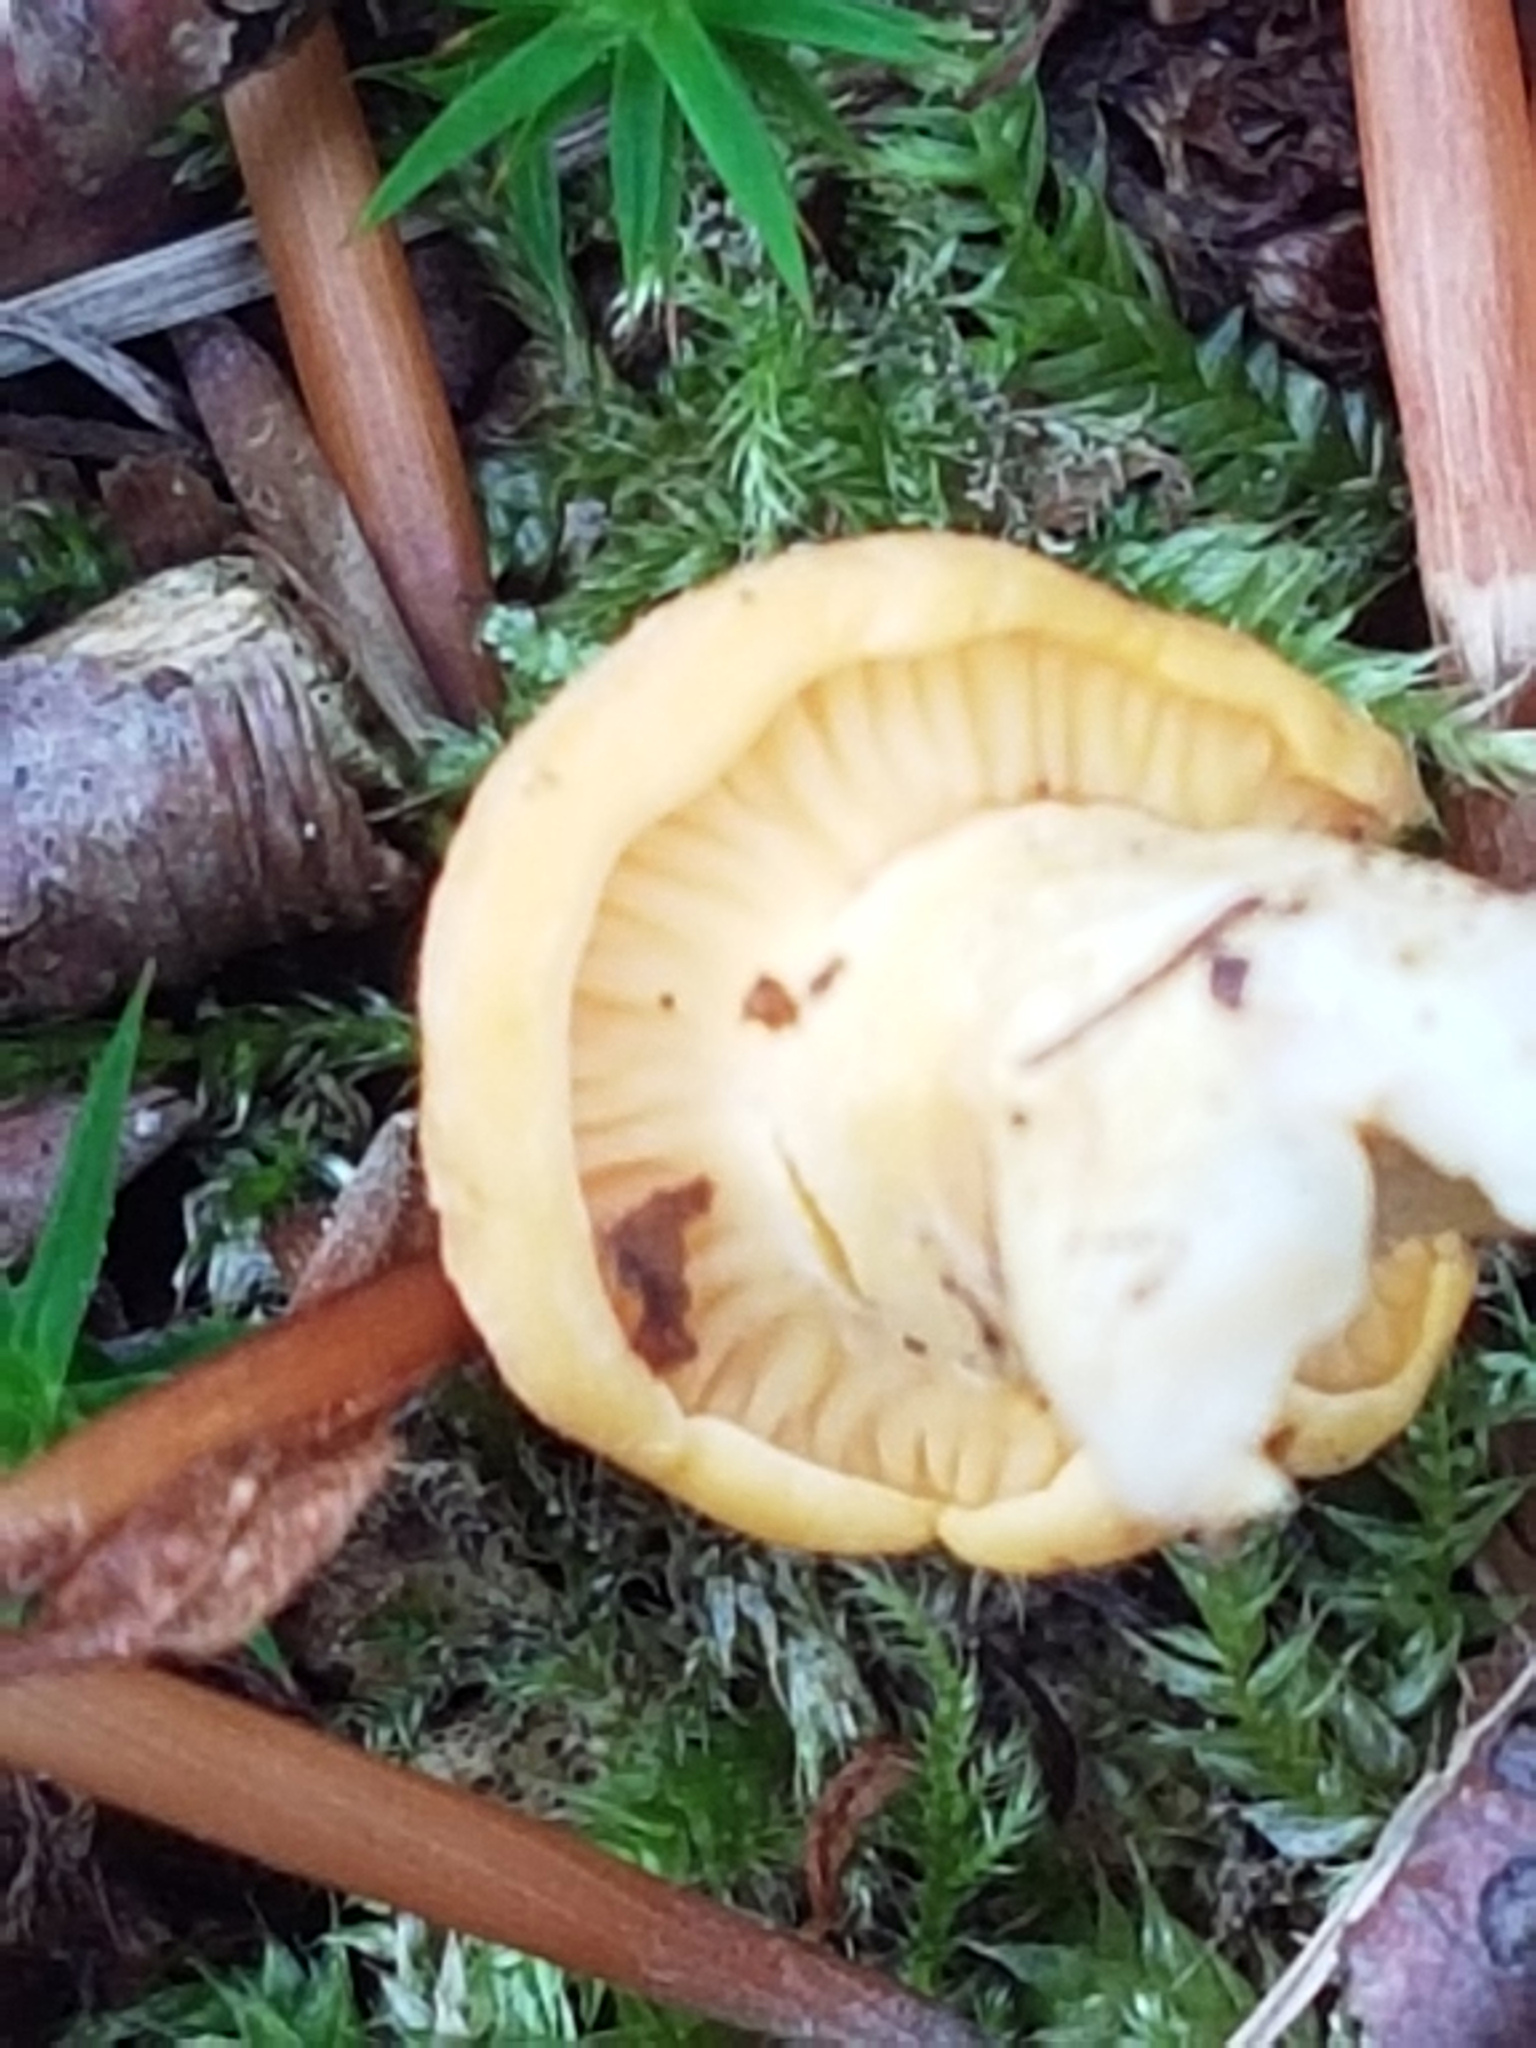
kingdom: Fungi
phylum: Basidiomycota
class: Agaricomycetes
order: Cantharellales
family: Hydnaceae
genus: Cantharellus
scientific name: Cantharellus cibarius
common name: Chanterelle
